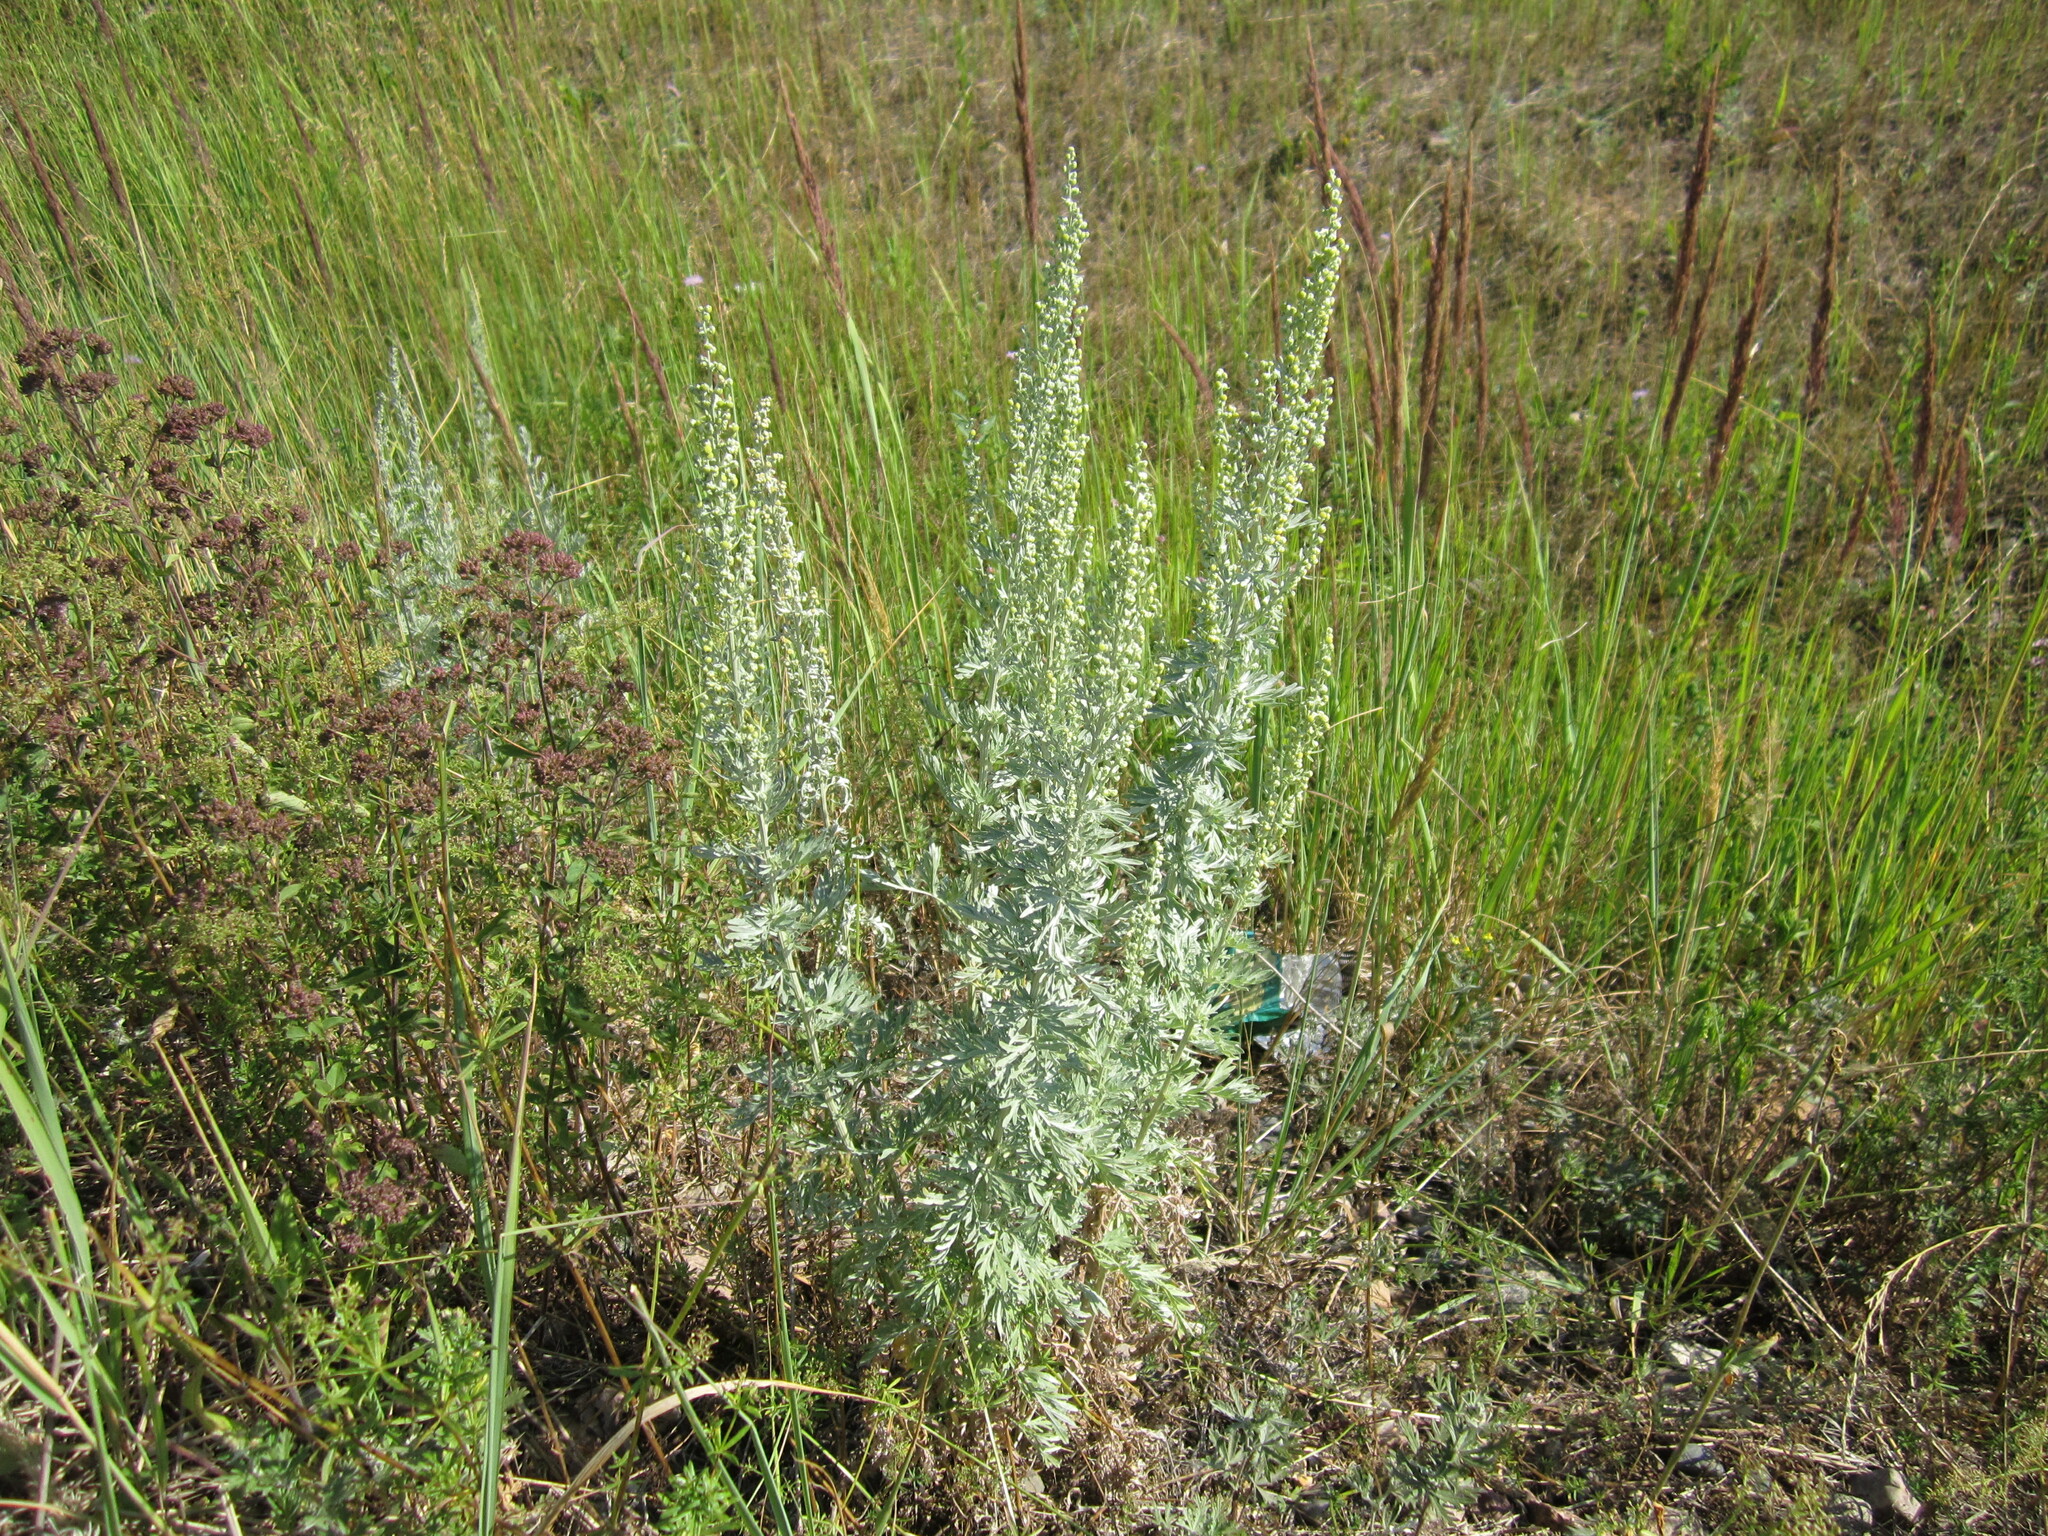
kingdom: Plantae
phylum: Tracheophyta
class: Magnoliopsida
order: Asterales
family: Asteraceae
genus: Artemisia
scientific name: Artemisia absinthium
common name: Wormwood
